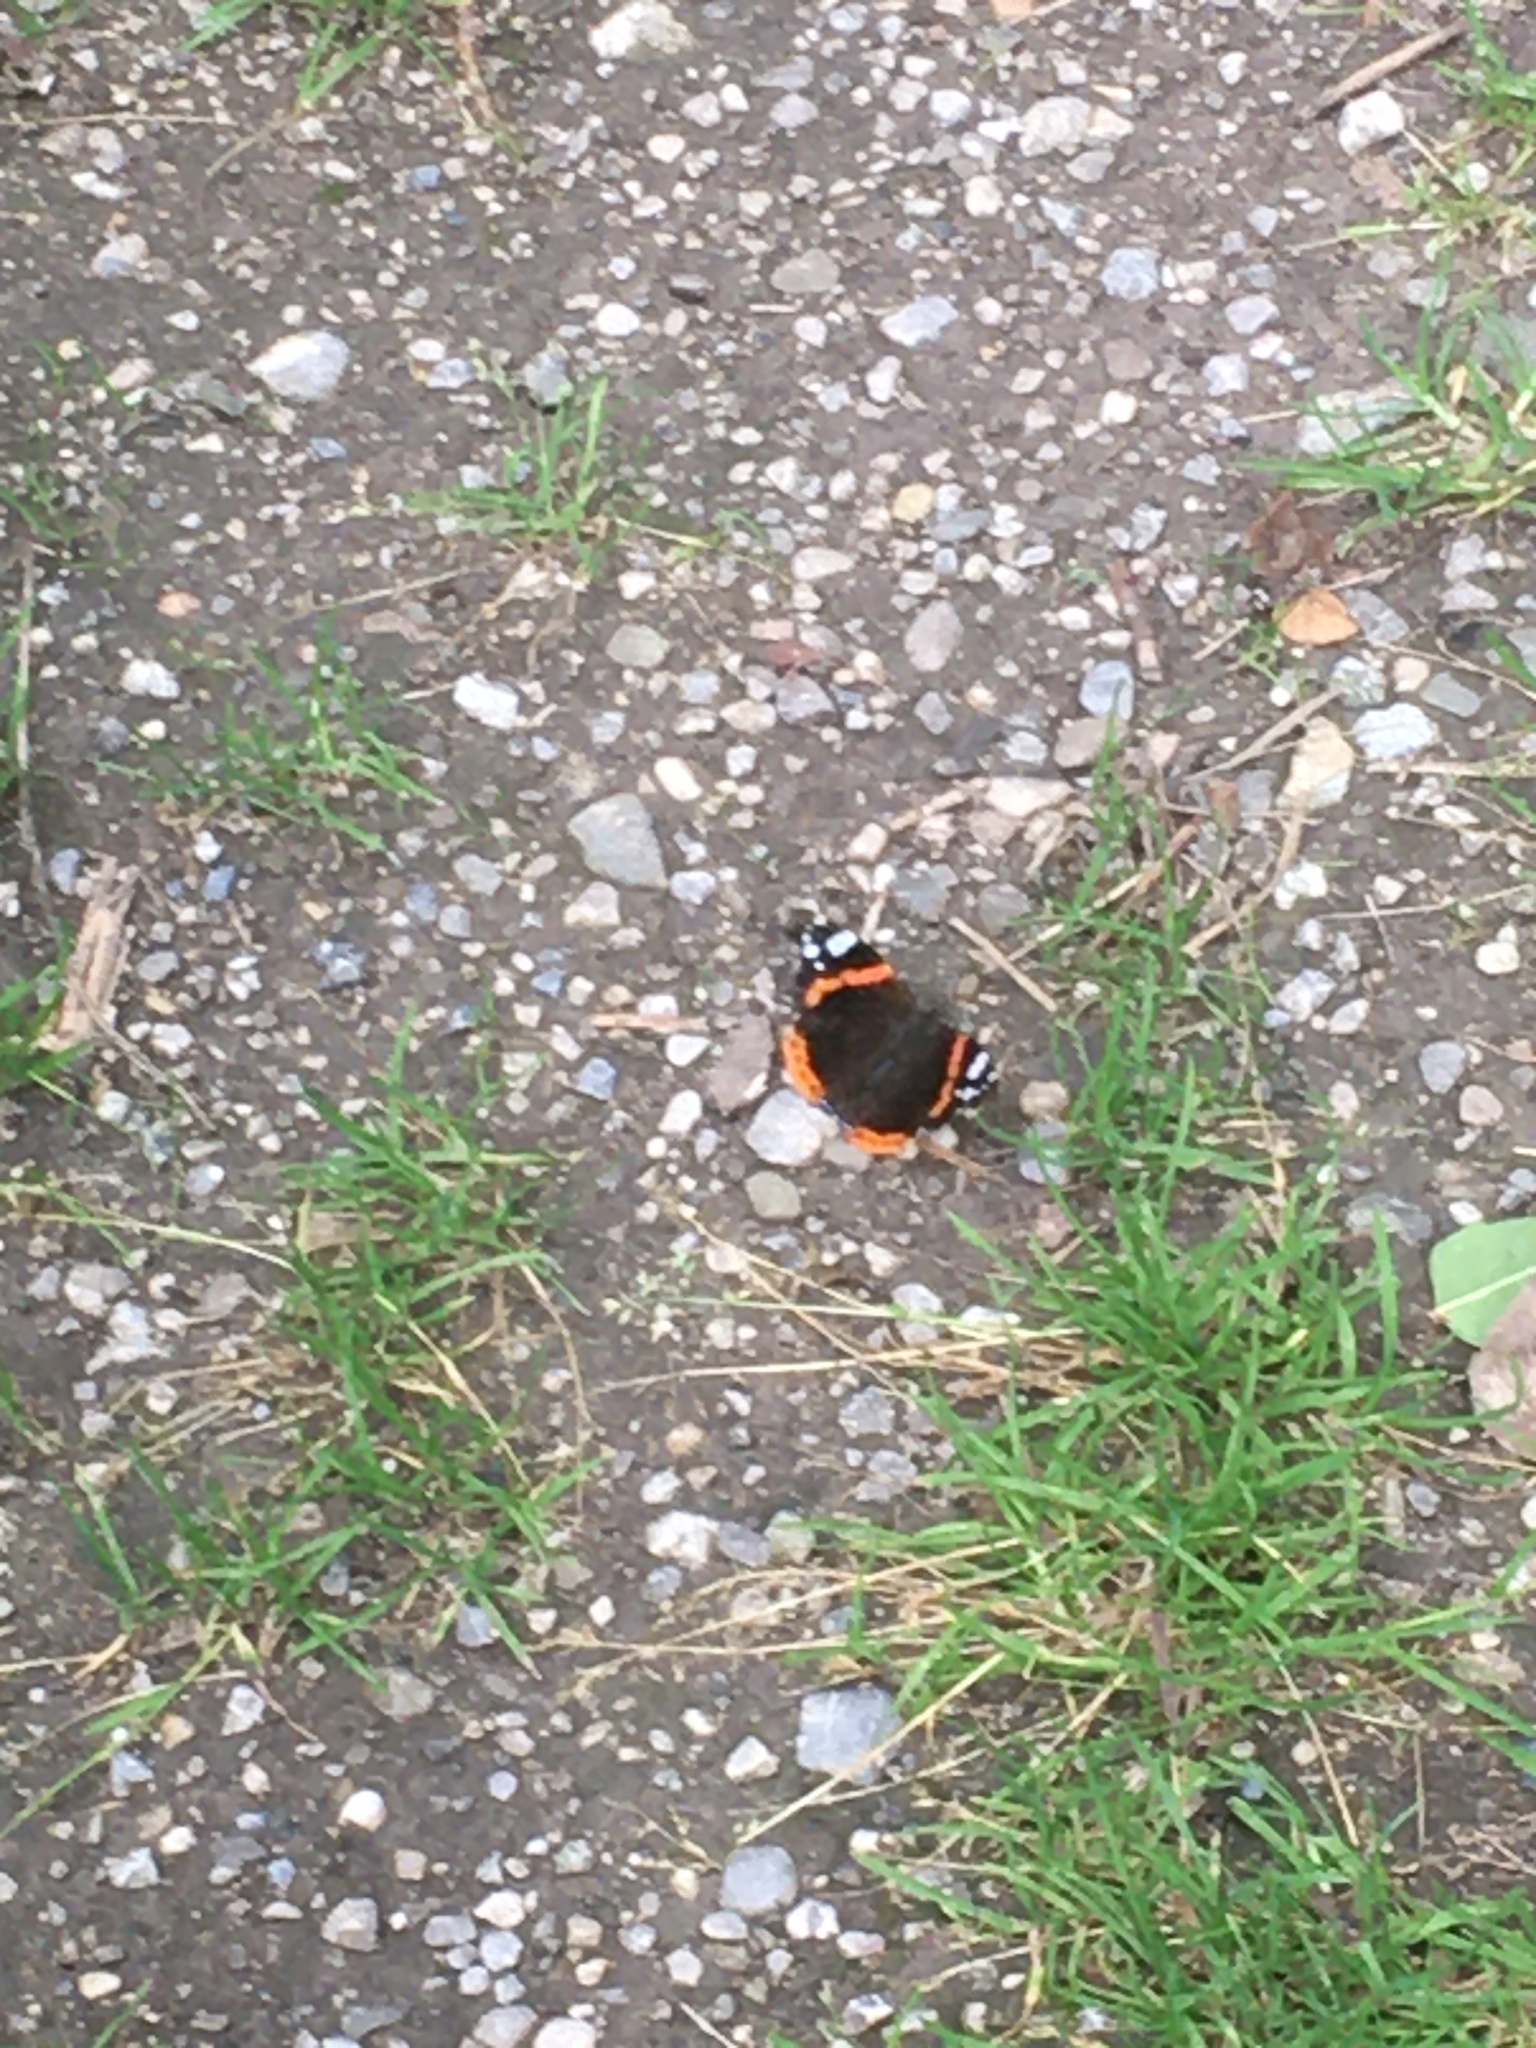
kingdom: Animalia
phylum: Arthropoda
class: Insecta
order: Lepidoptera
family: Nymphalidae
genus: Vanessa
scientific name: Vanessa atalanta
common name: Red admiral
